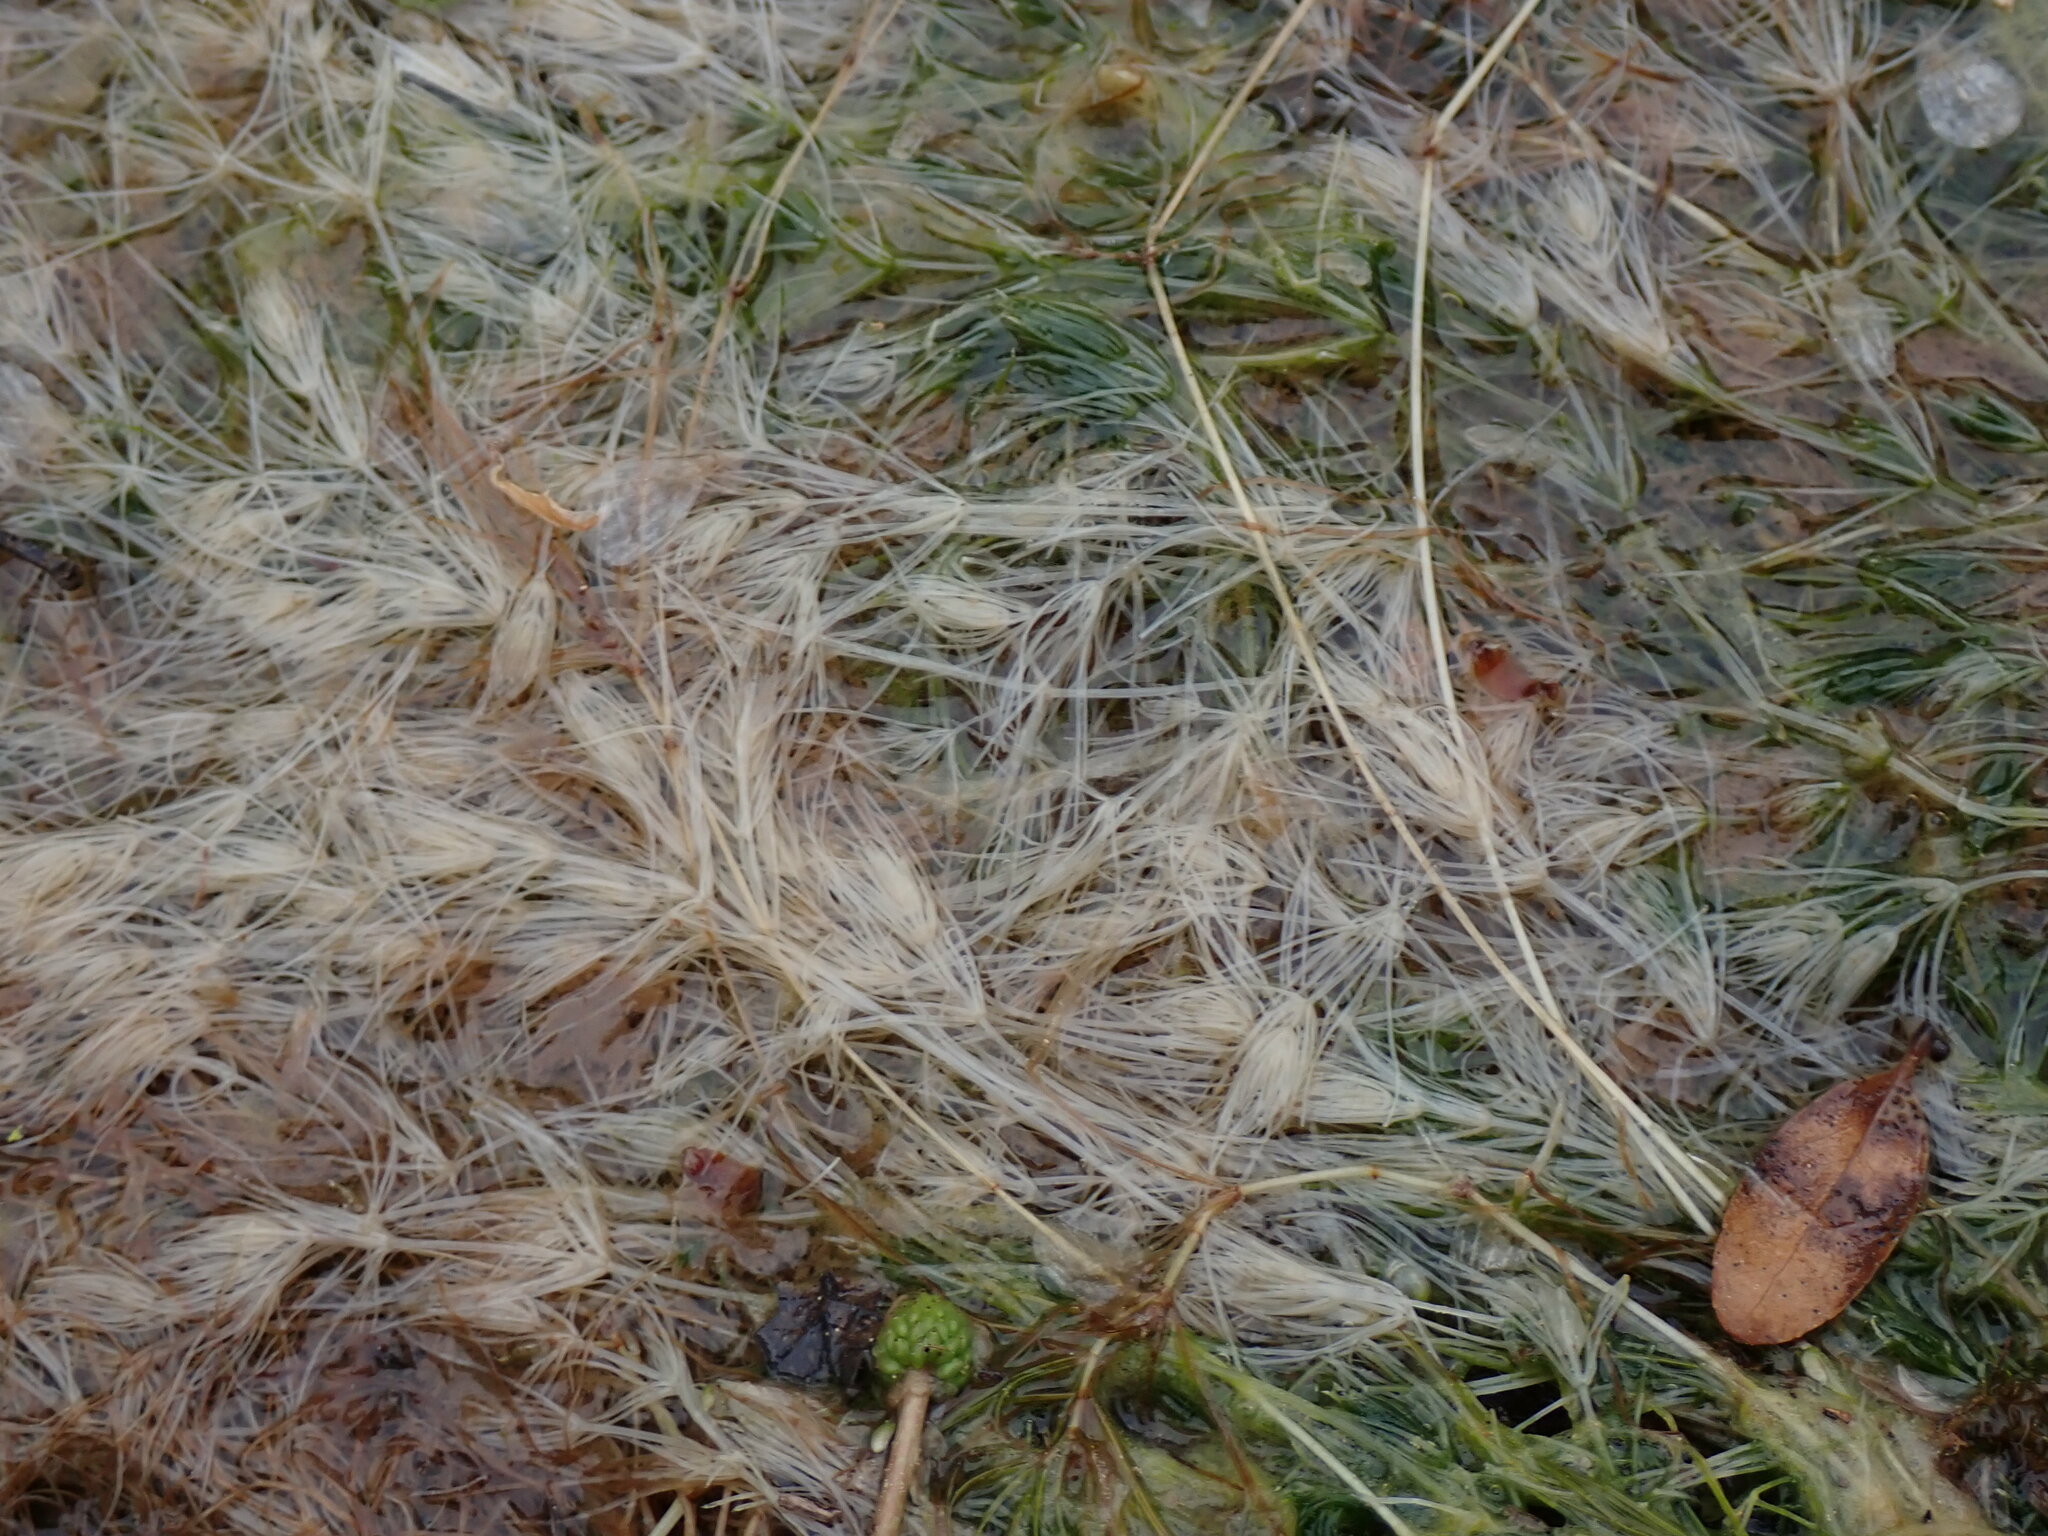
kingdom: Plantae
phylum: Charophyta
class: Charophyceae
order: Charales
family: Characeae
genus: Chara
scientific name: Chara
